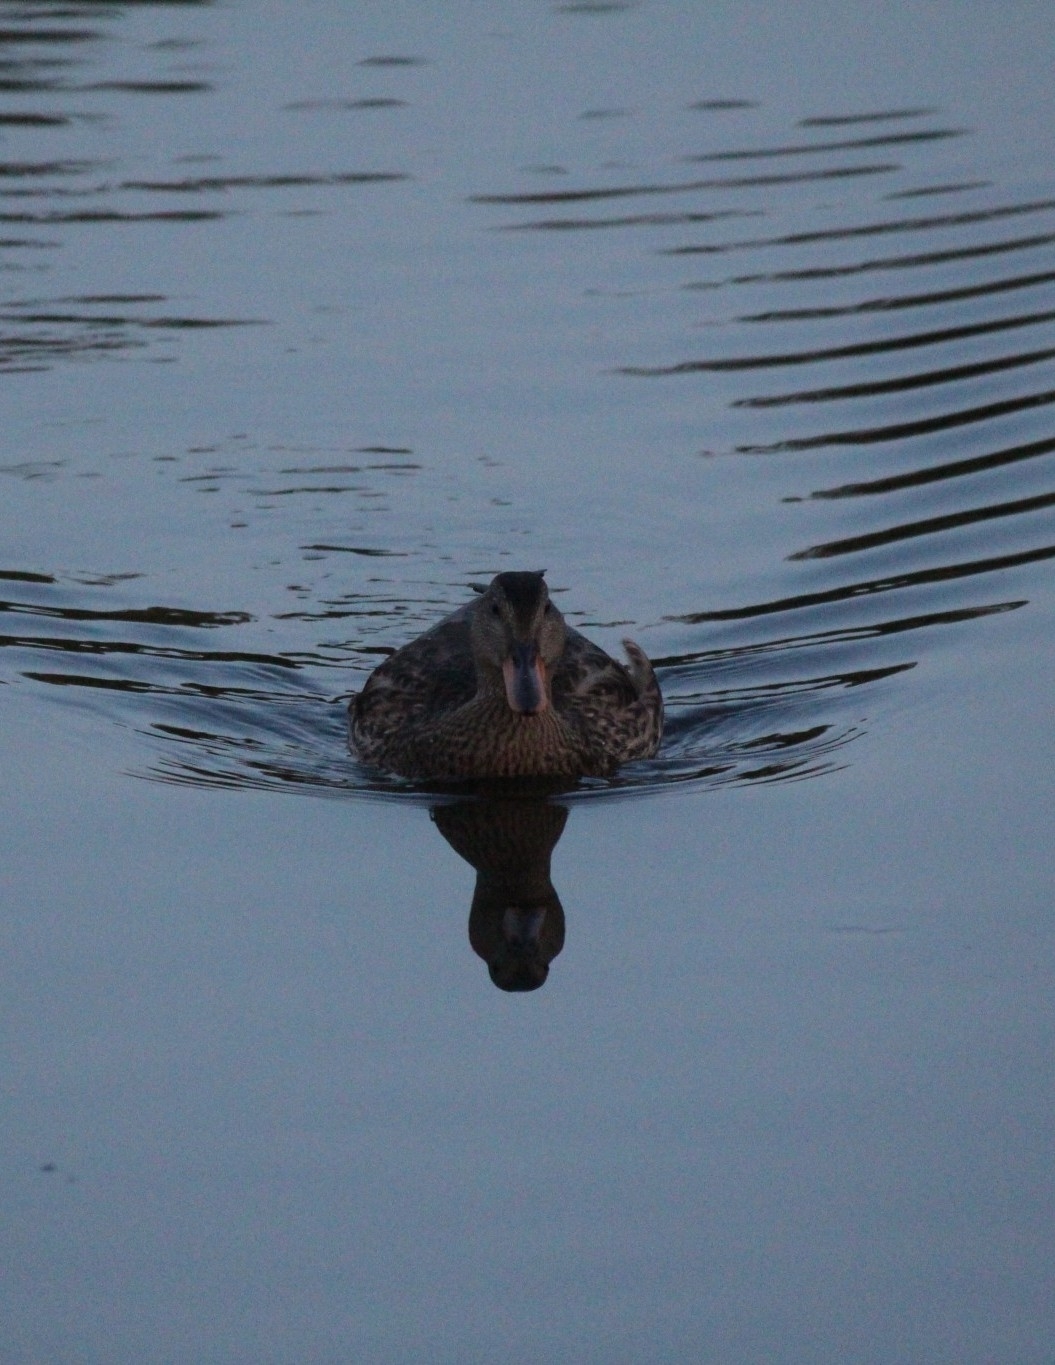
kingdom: Animalia
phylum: Chordata
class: Aves
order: Anseriformes
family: Anatidae
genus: Mareca
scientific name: Mareca strepera
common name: Gadwall
